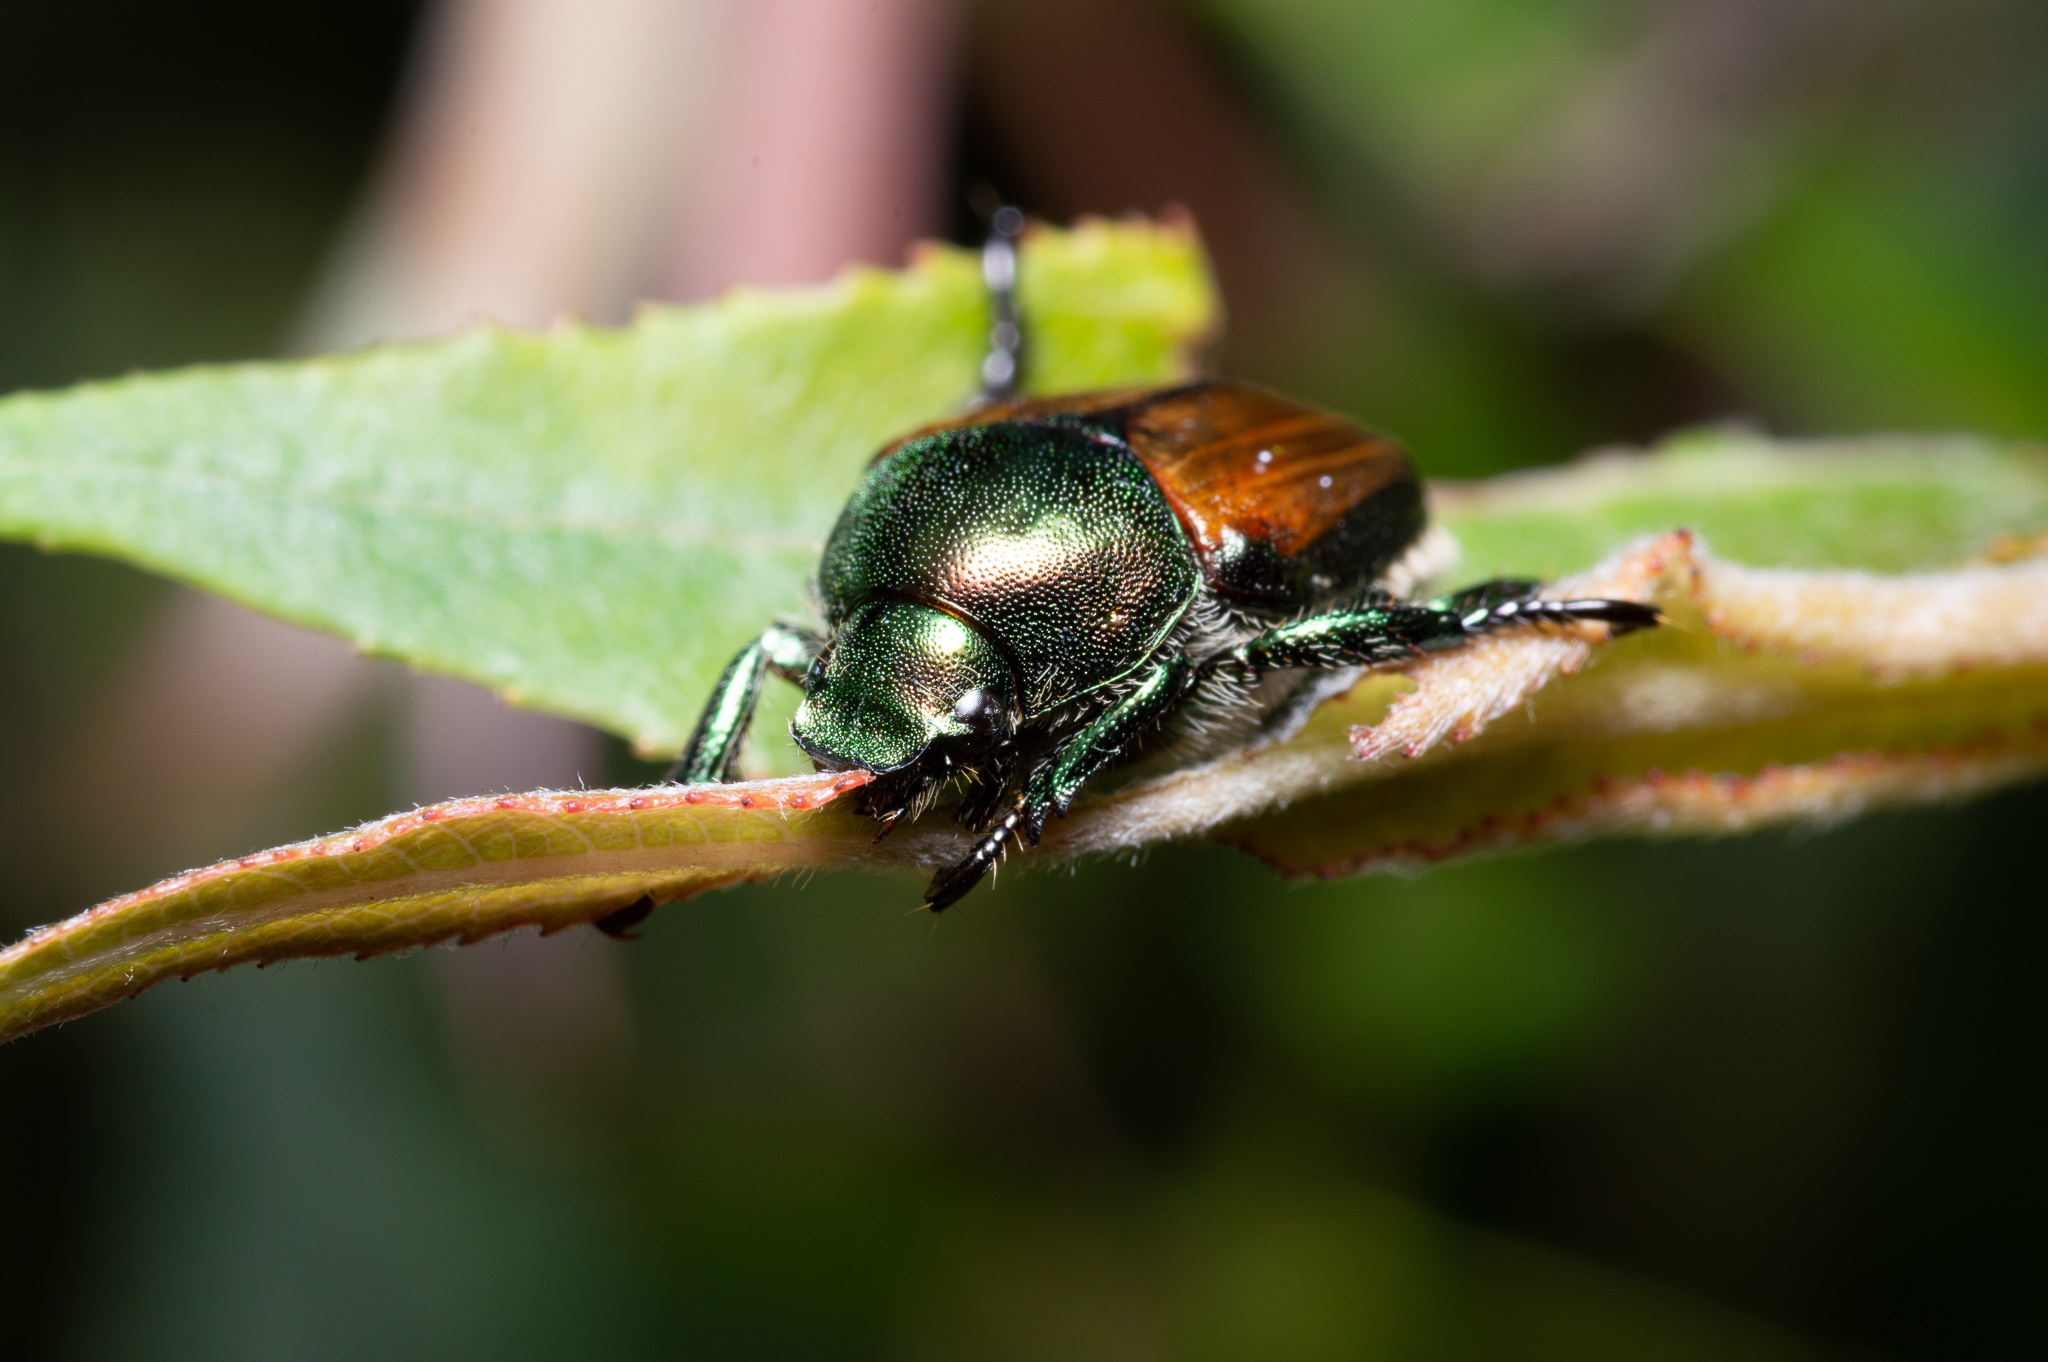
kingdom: Animalia
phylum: Arthropoda
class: Insecta
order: Coleoptera
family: Scarabaeidae
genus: Popillia
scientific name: Popillia japonica
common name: Japanese beetle
